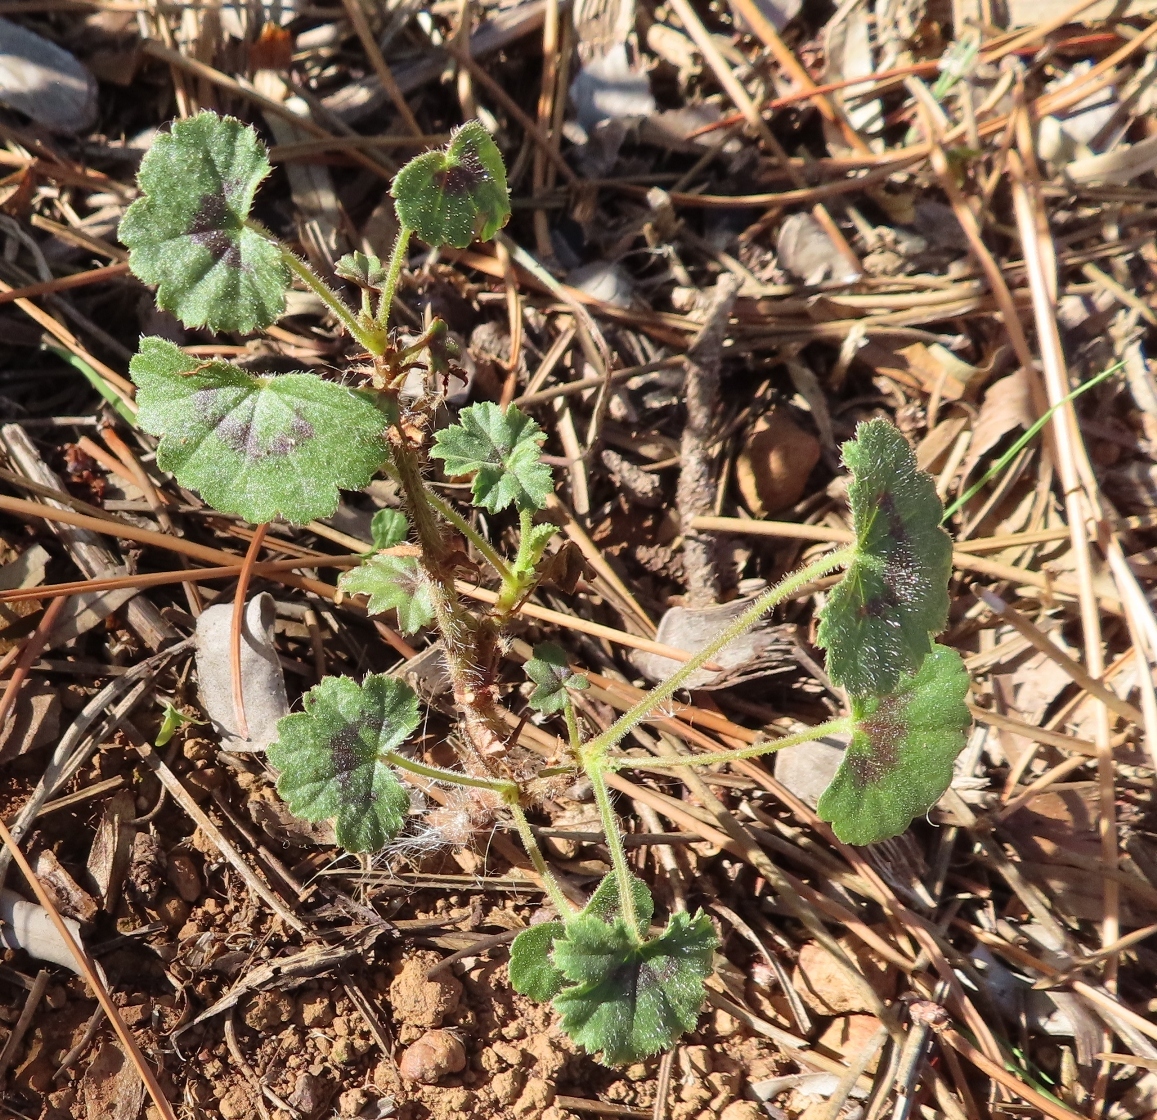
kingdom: Plantae
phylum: Tracheophyta
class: Magnoliopsida
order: Geraniales
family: Geraniaceae
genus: Pelargonium
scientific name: Pelargonium elongatum
